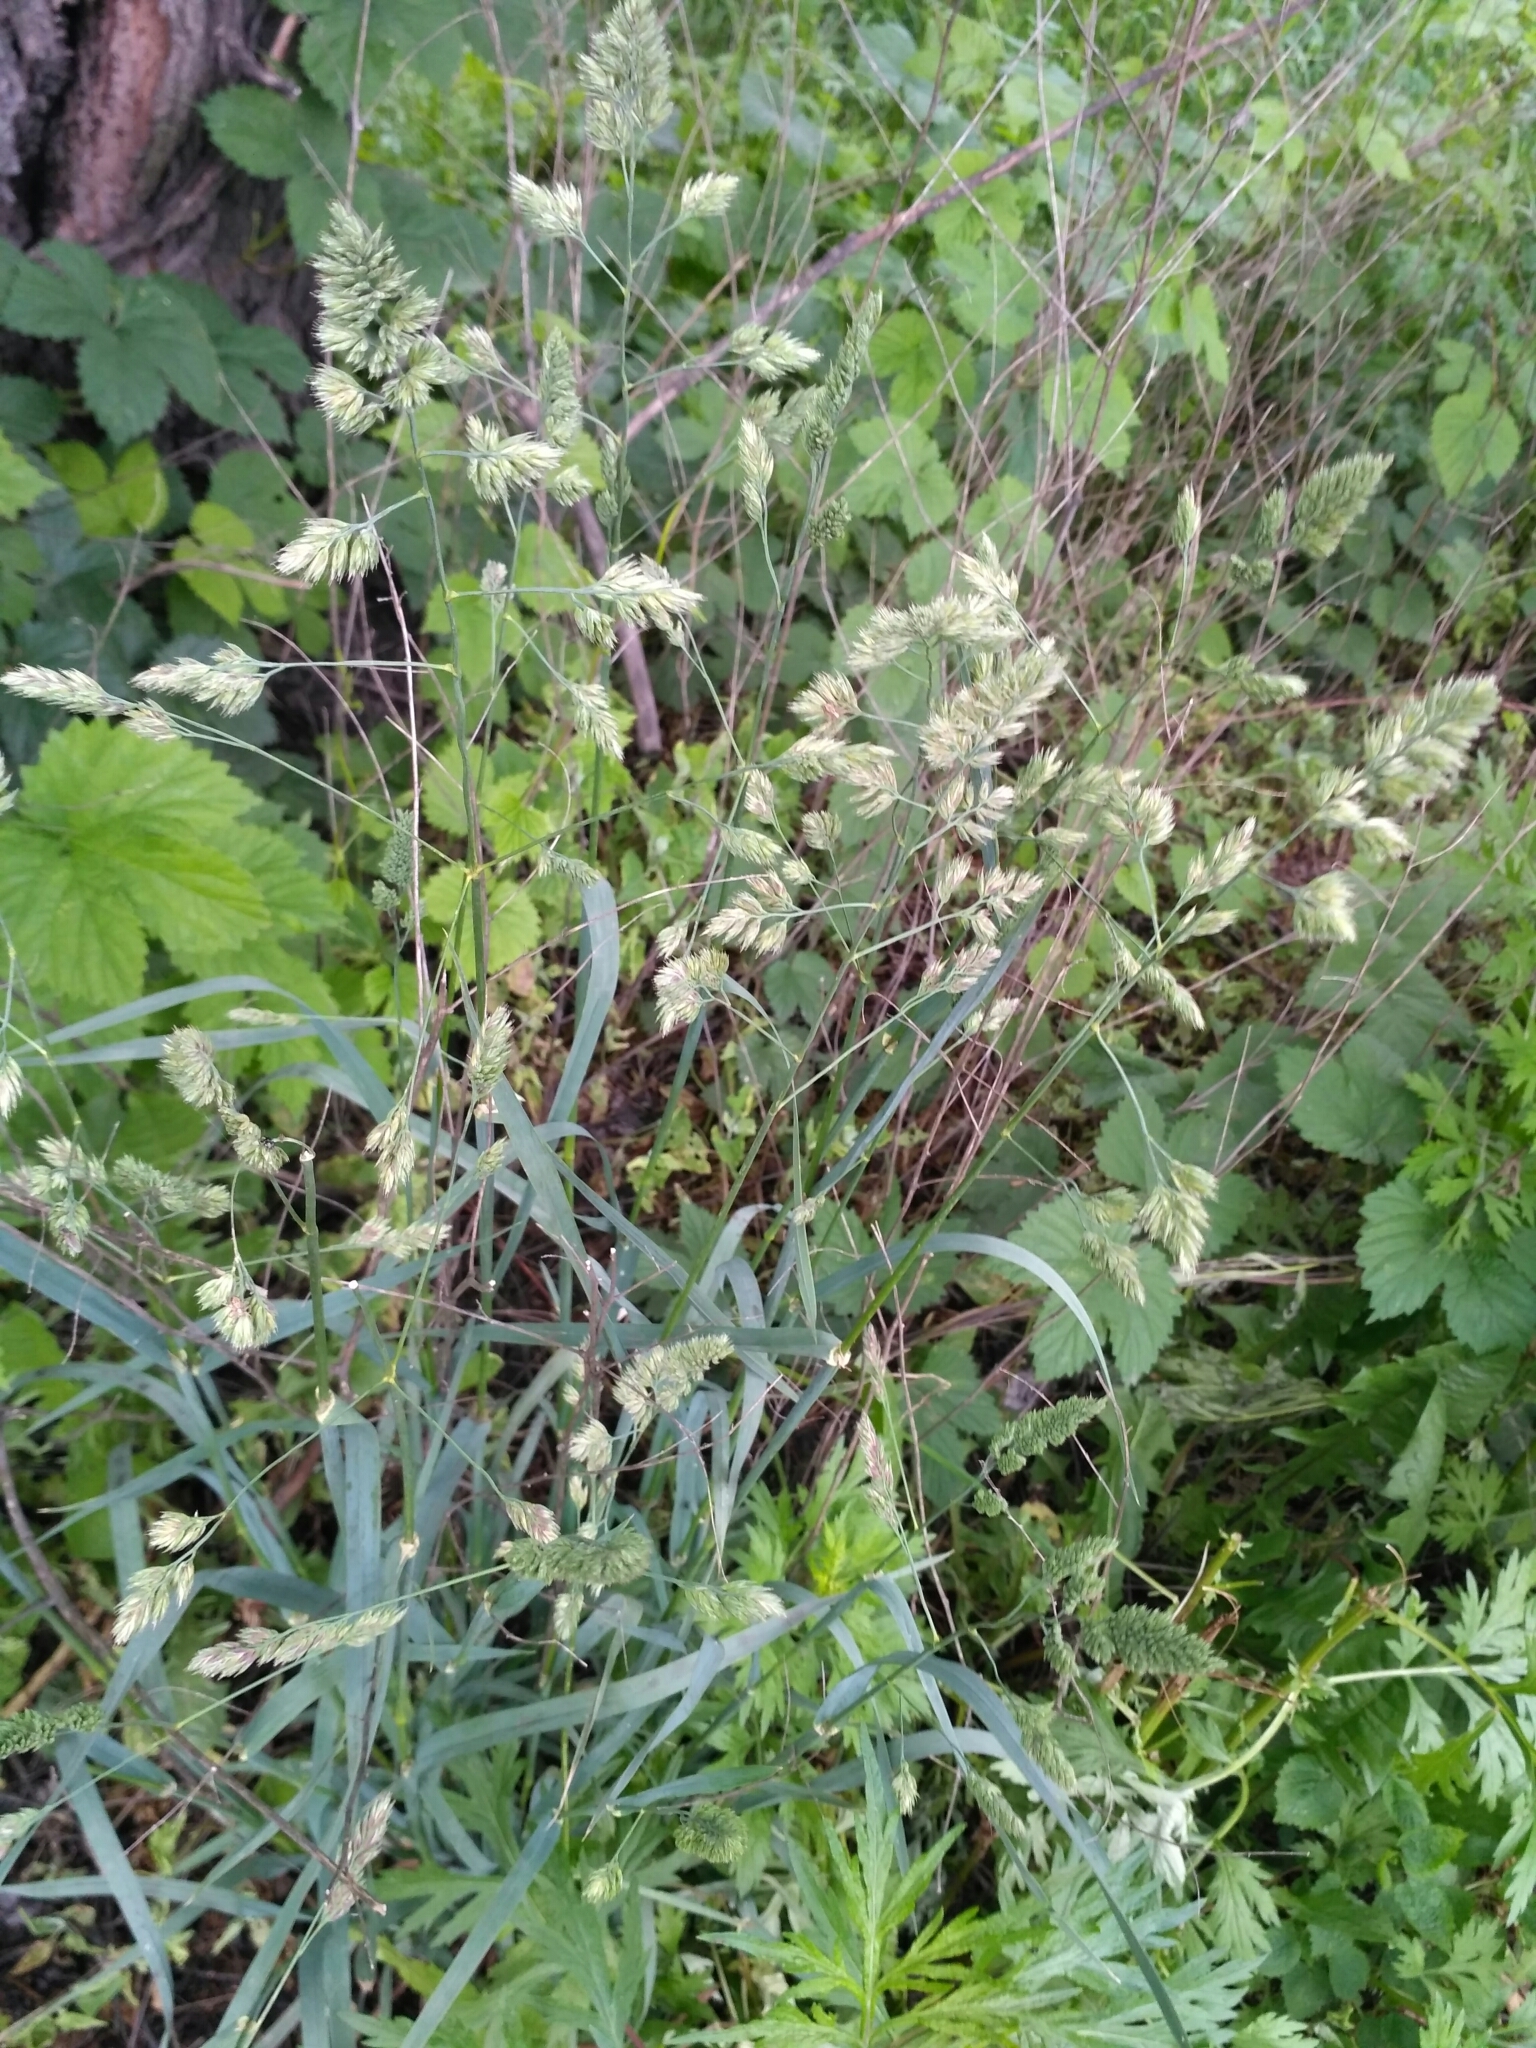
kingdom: Plantae
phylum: Tracheophyta
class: Liliopsida
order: Poales
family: Poaceae
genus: Dactylis
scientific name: Dactylis glomerata
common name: Orchardgrass
